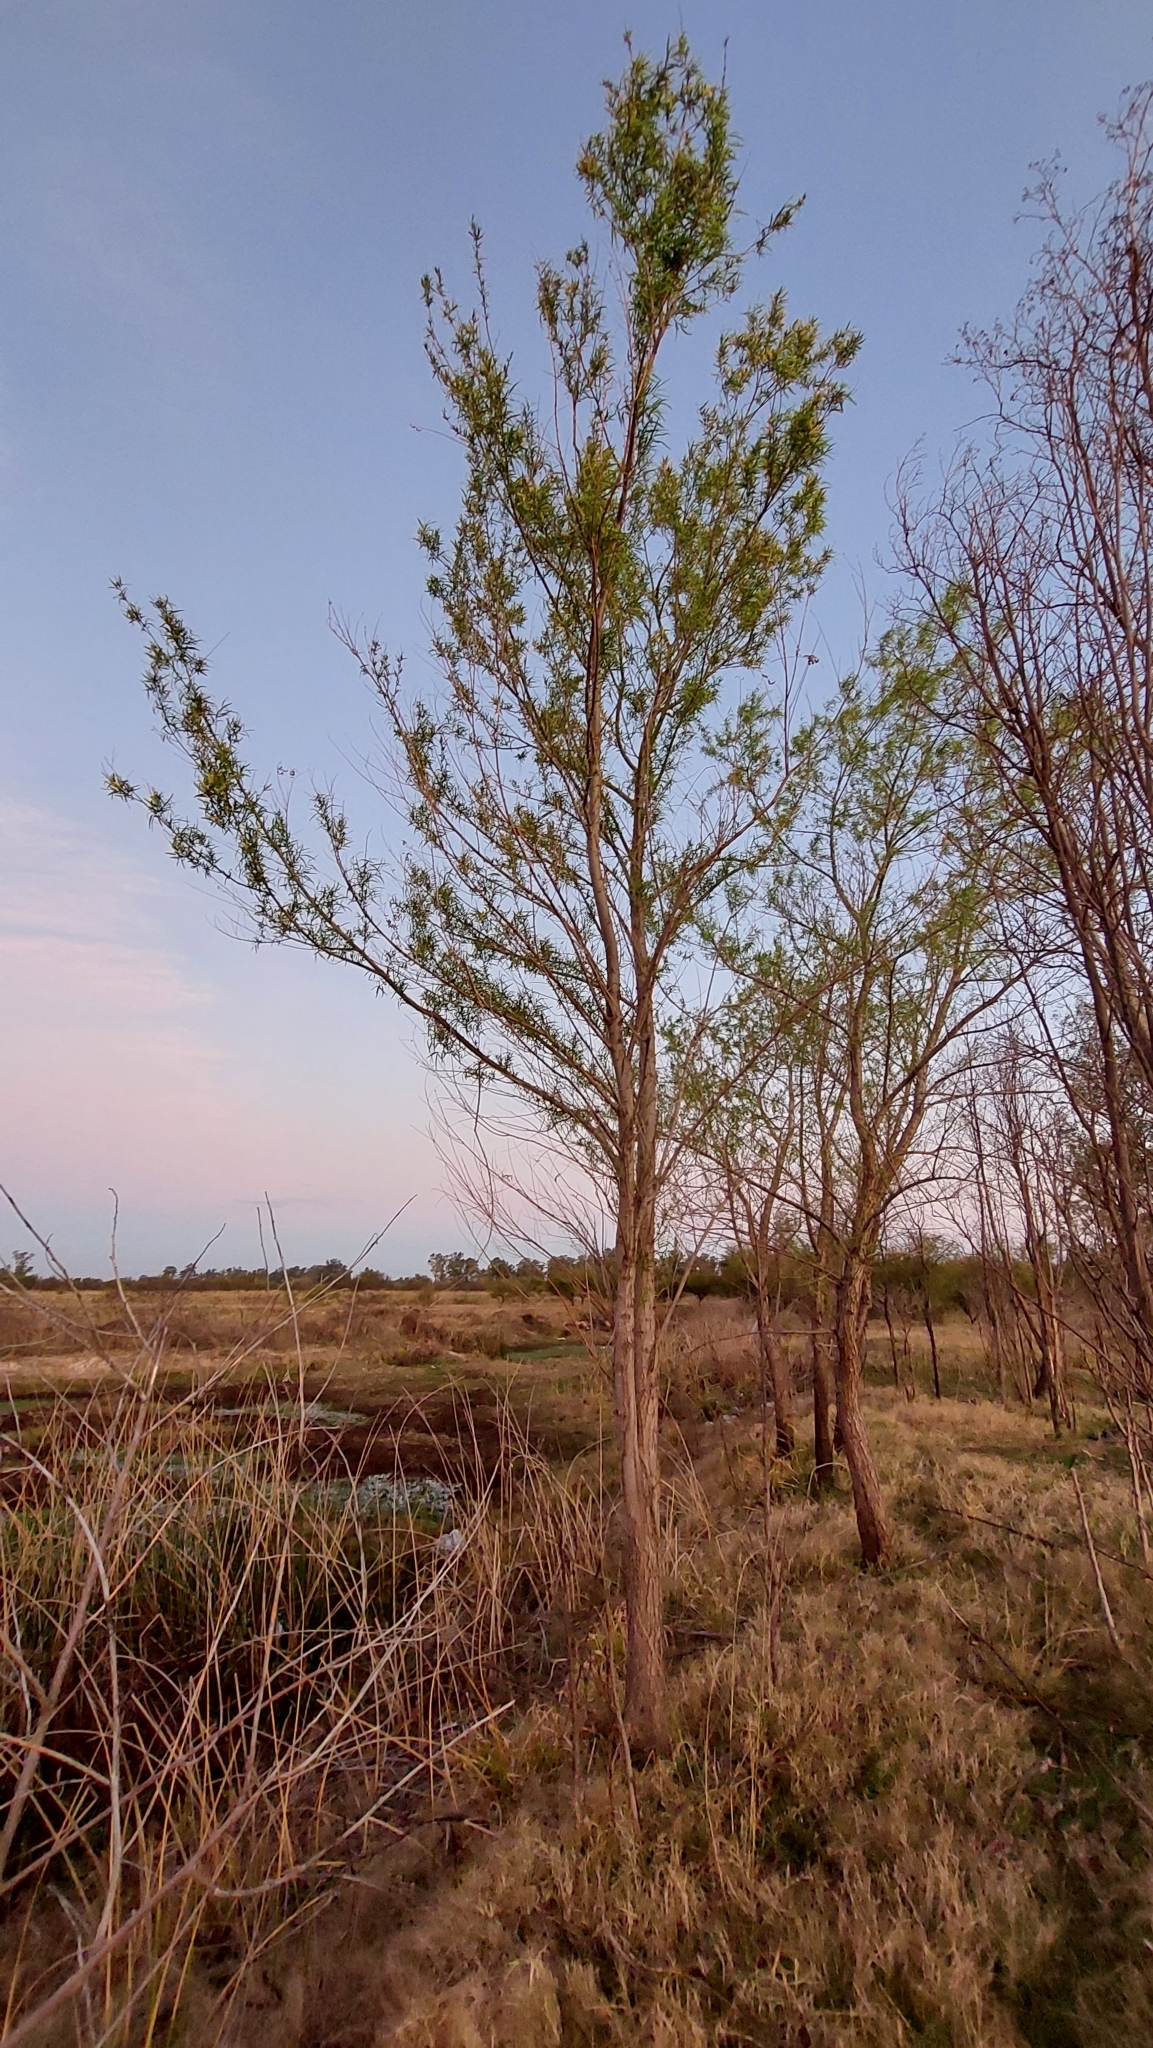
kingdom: Plantae
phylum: Tracheophyta
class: Magnoliopsida
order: Malpighiales
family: Salicaceae
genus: Salix
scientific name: Salix humboldtiana
